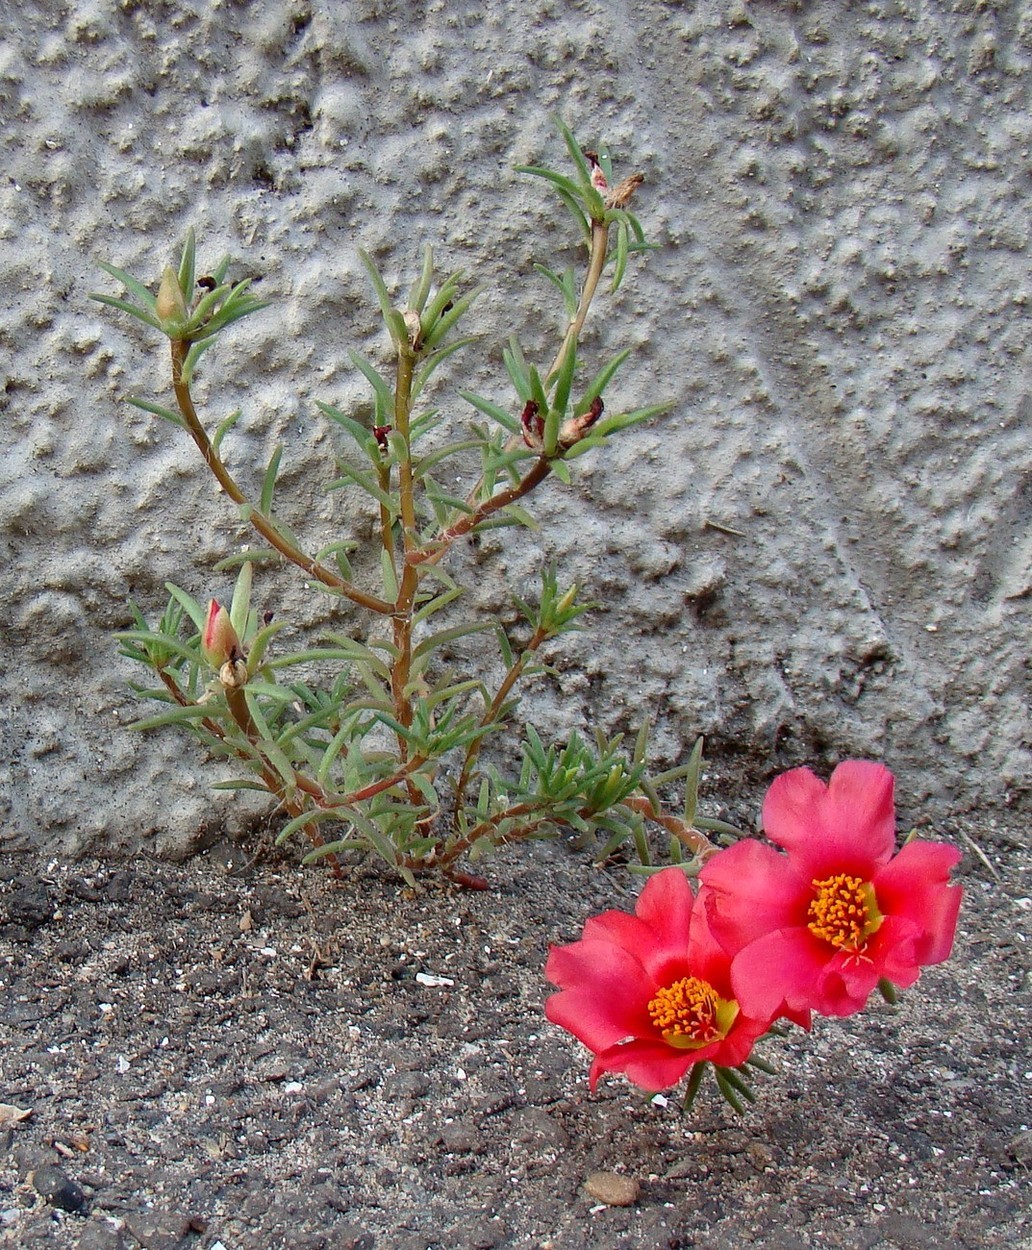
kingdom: Plantae
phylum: Tracheophyta
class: Magnoliopsida
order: Caryophyllales
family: Portulacaceae
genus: Portulaca
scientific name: Portulaca grandiflora
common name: Moss-rose
